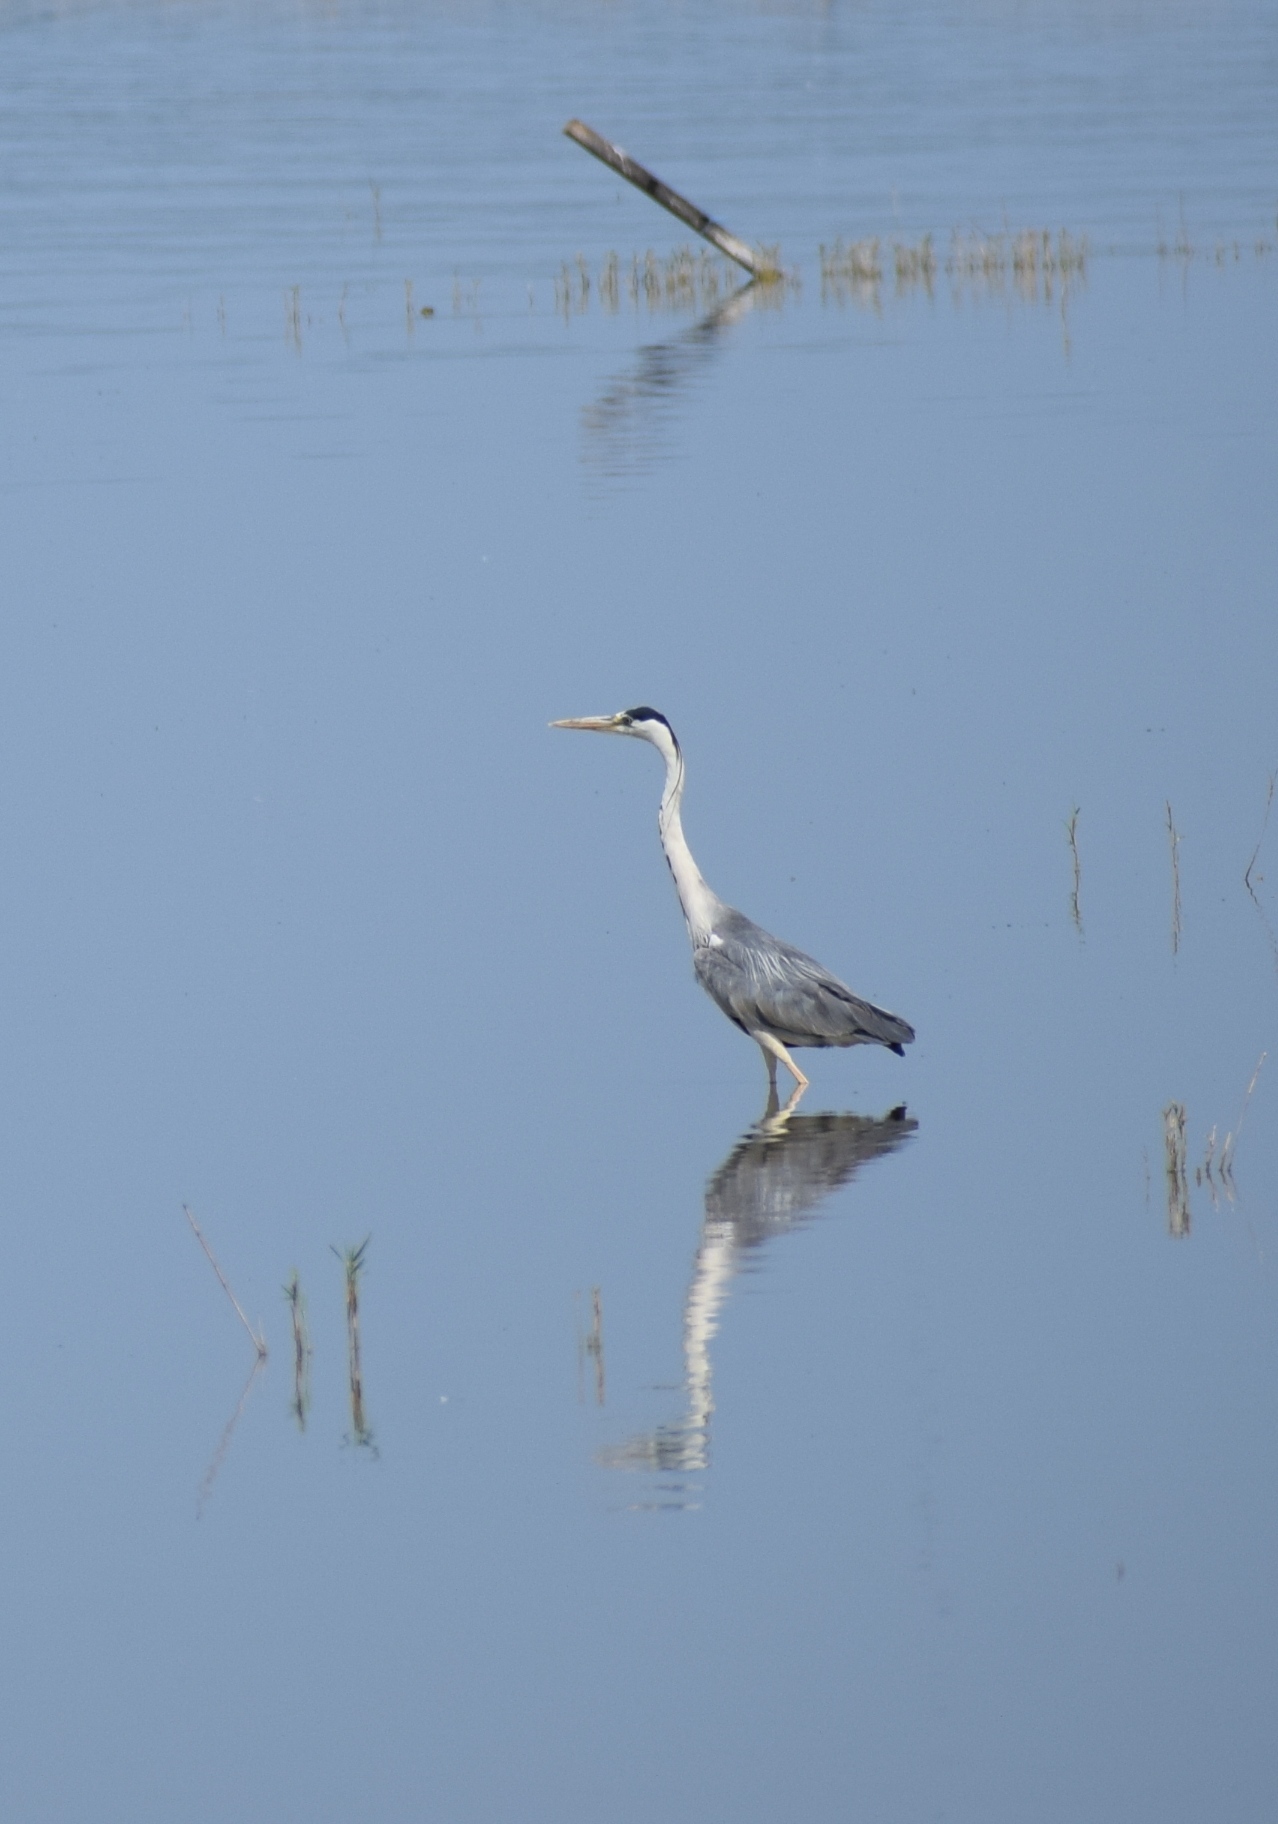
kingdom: Animalia
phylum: Chordata
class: Aves
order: Pelecaniformes
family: Ardeidae
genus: Ardea
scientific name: Ardea cinerea
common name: Grey heron
